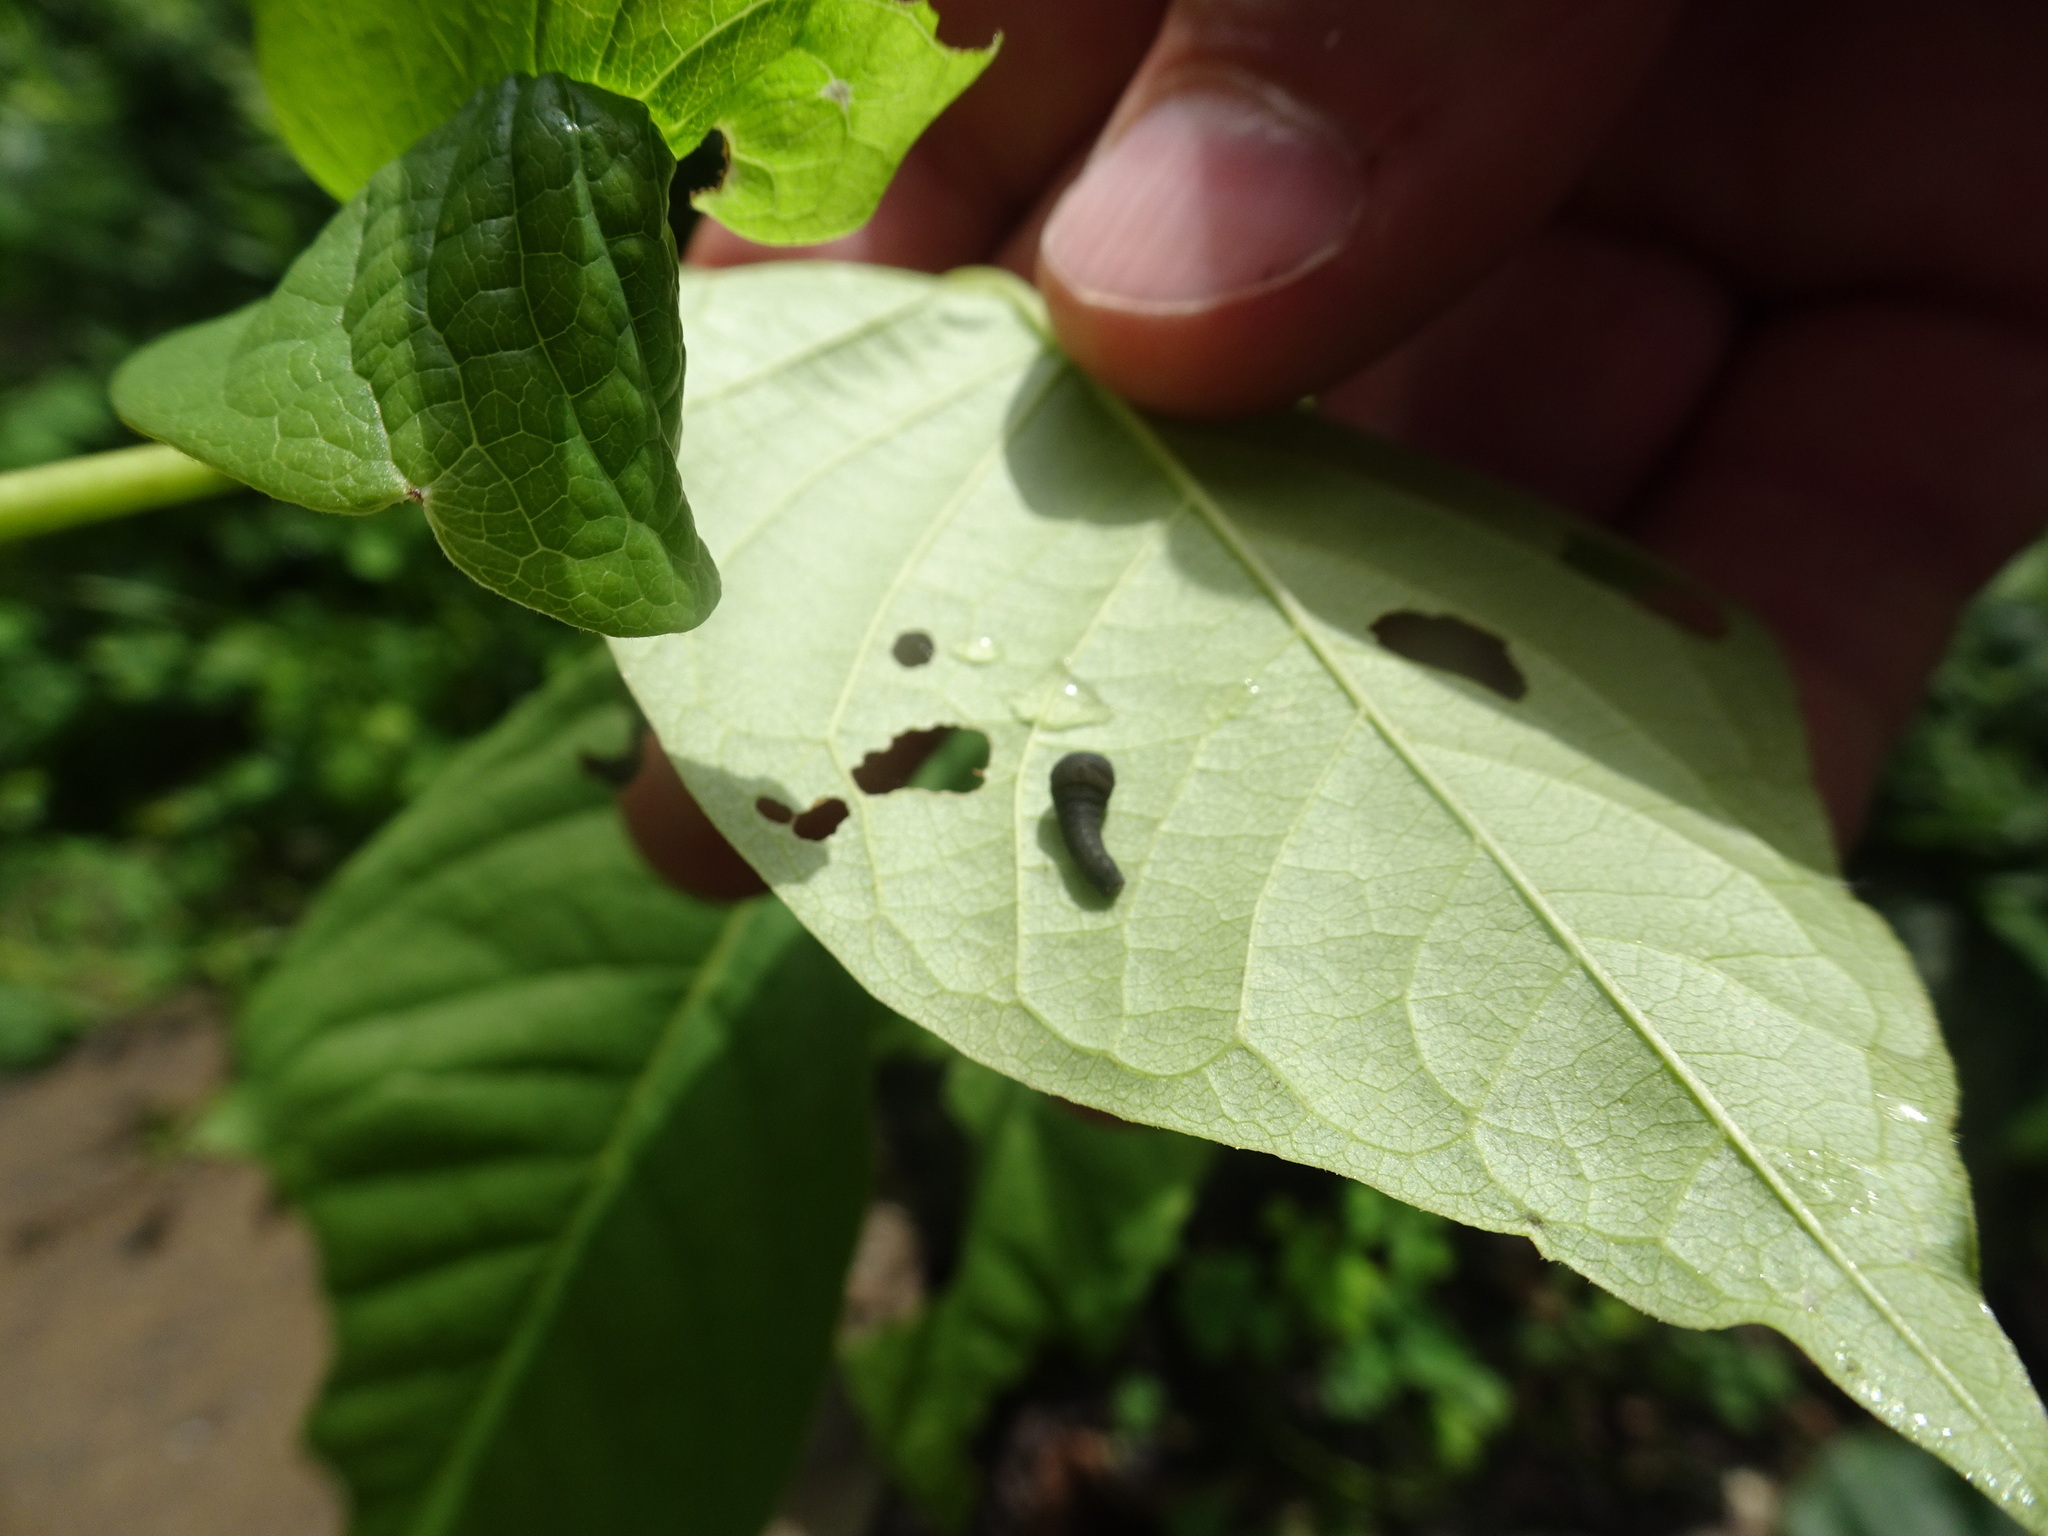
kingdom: Animalia
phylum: Arthropoda
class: Insecta
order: Lepidoptera
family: Papilionidae
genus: Protographium
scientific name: Protographium marcellus
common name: Zebra swallowtail
